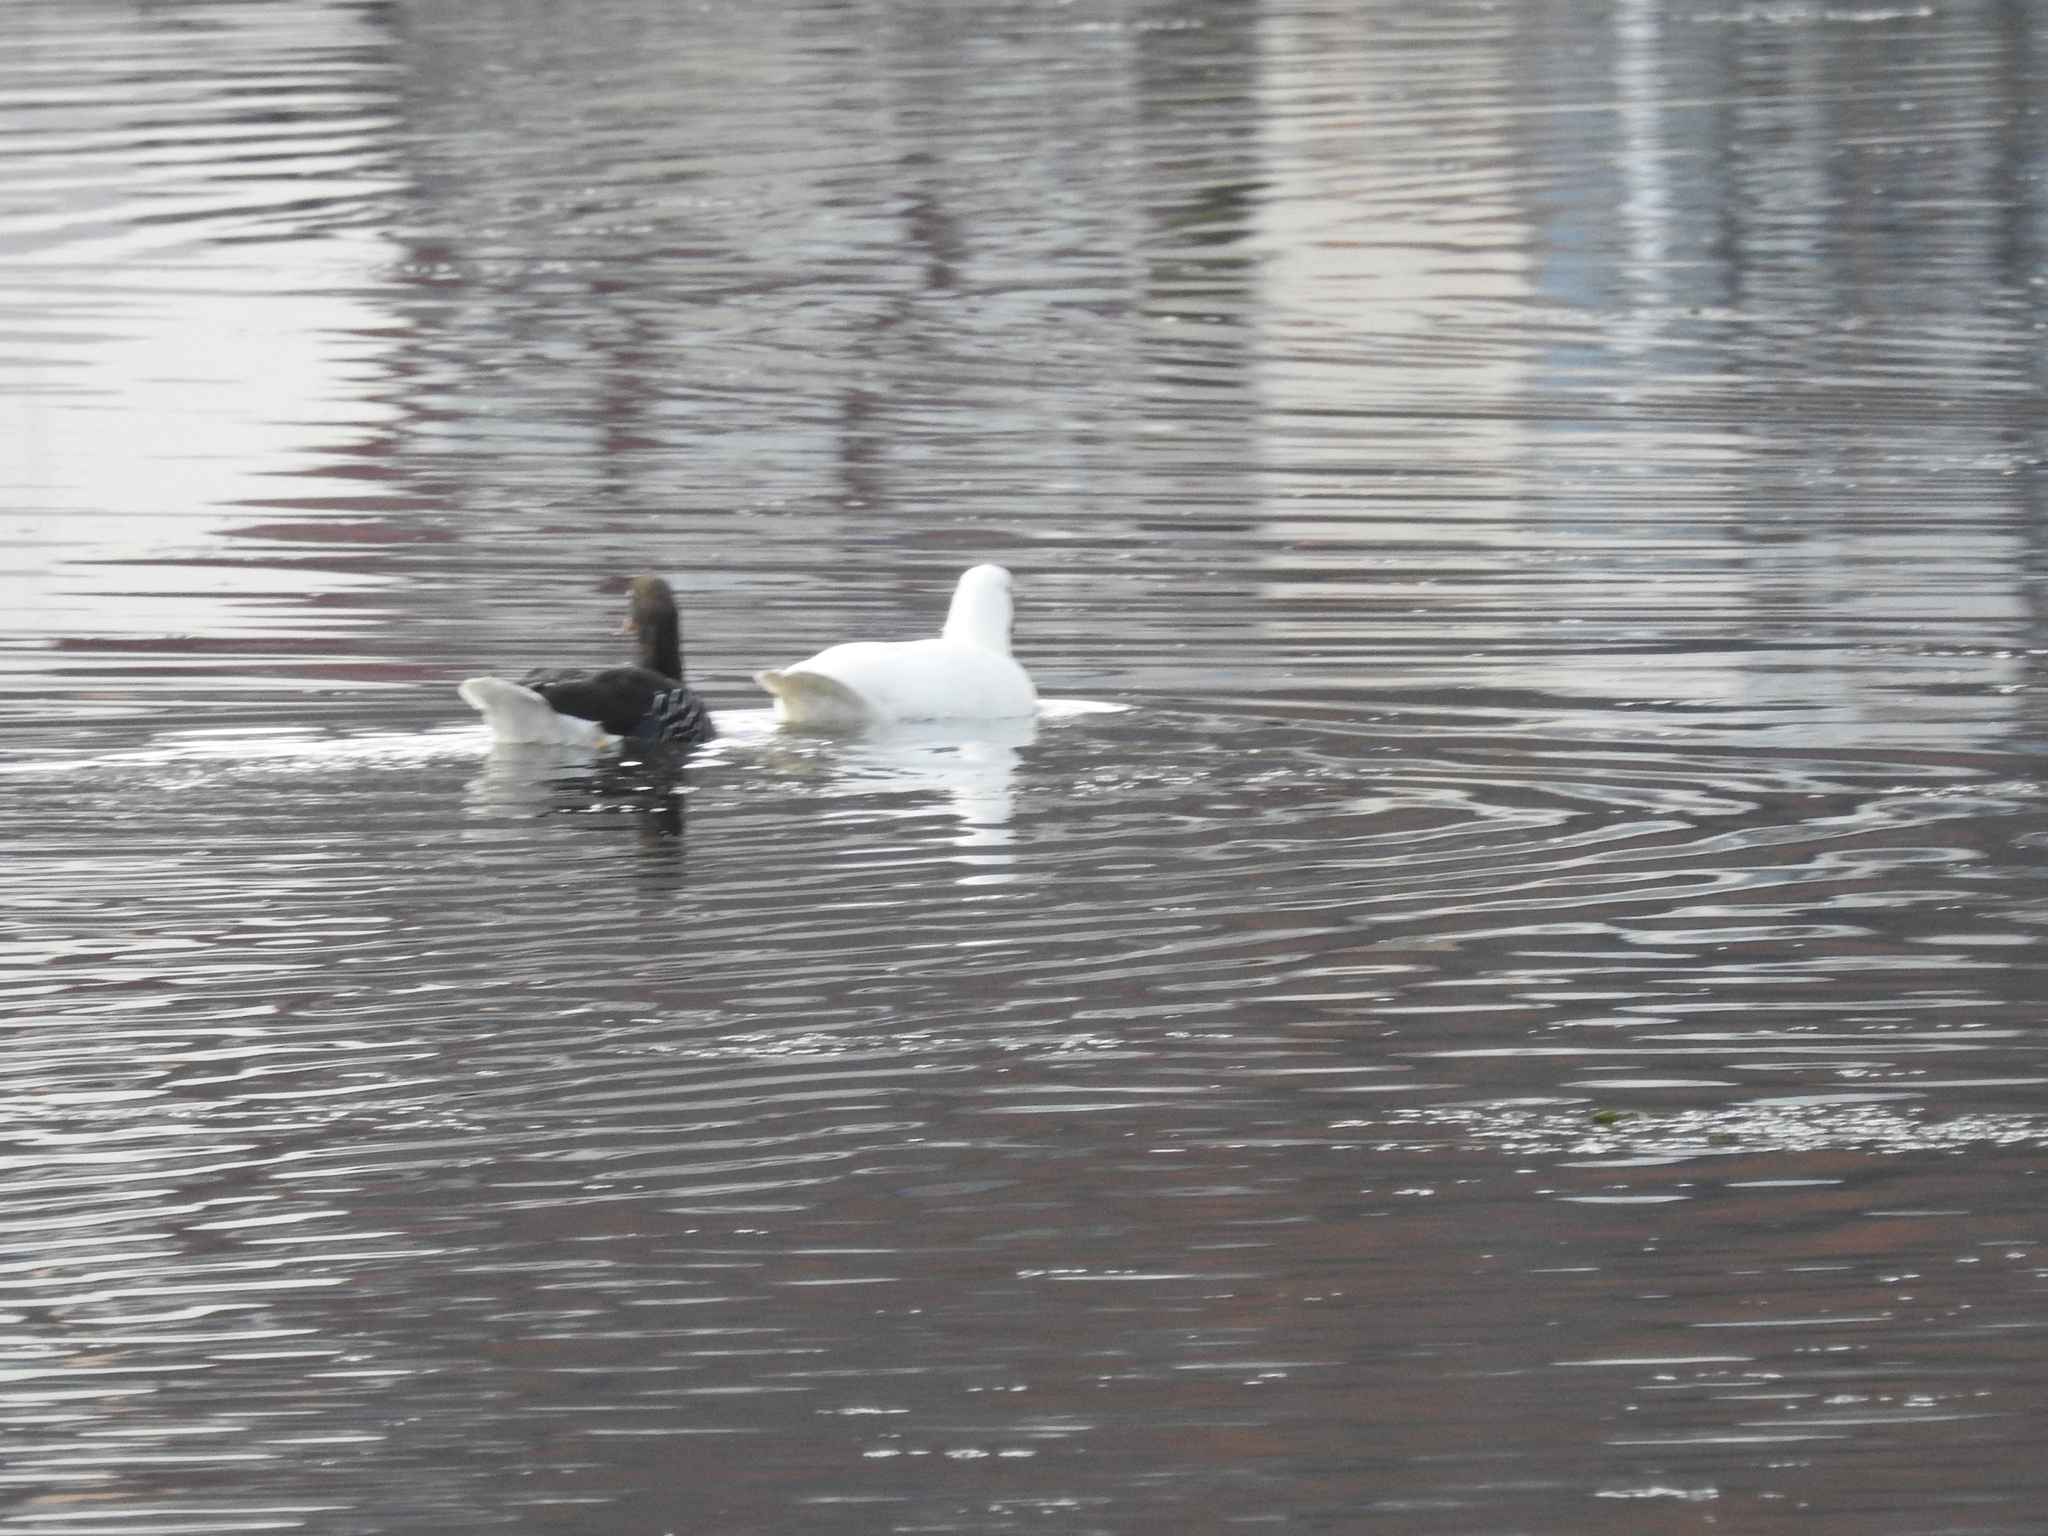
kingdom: Animalia
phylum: Chordata
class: Aves
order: Anseriformes
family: Anatidae
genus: Chloephaga
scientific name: Chloephaga hybrida
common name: Kelp goose
